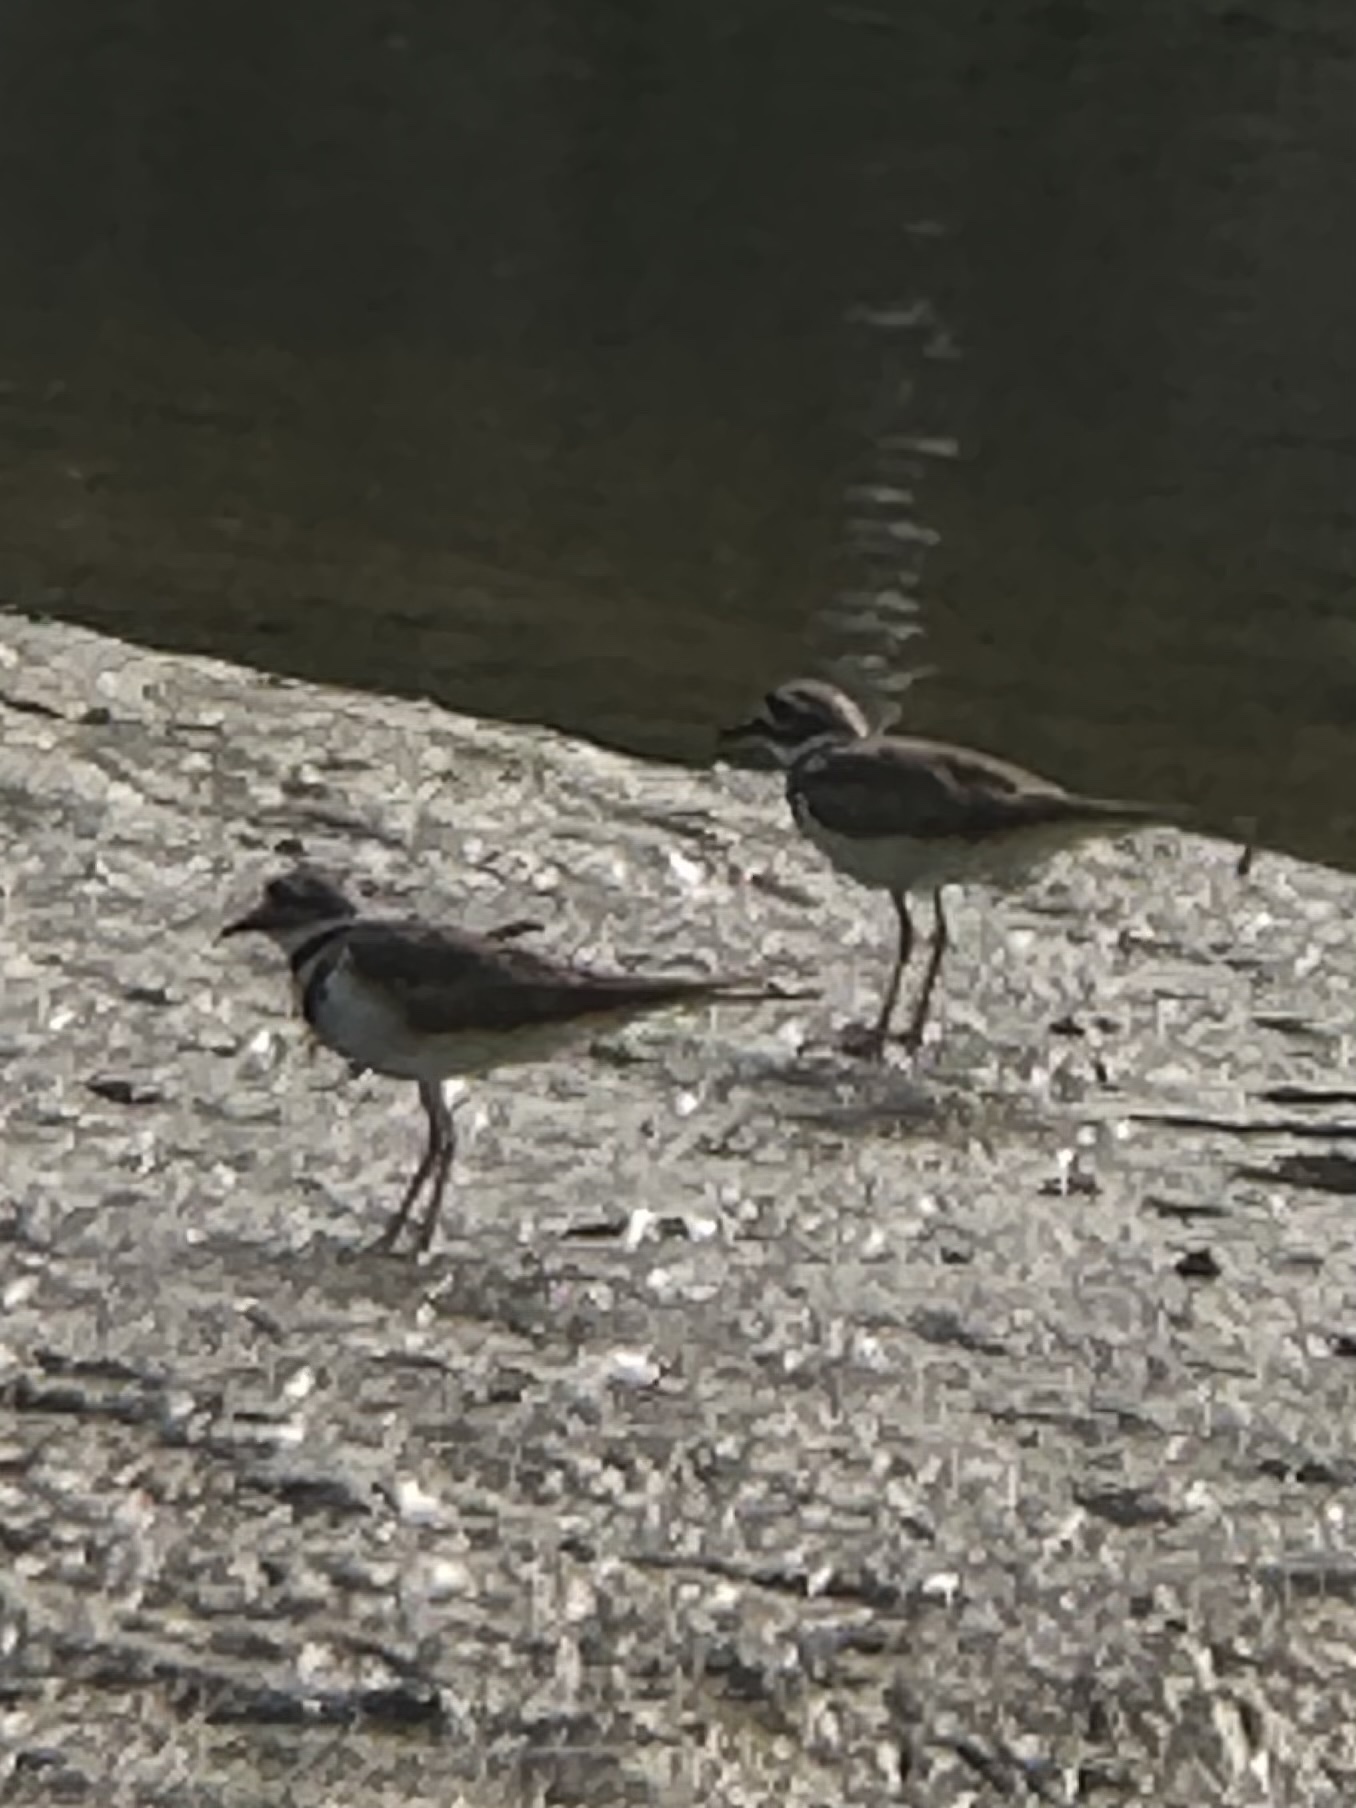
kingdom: Animalia
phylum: Chordata
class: Aves
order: Charadriiformes
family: Charadriidae
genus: Charadrius
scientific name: Charadrius vociferus
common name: Killdeer
